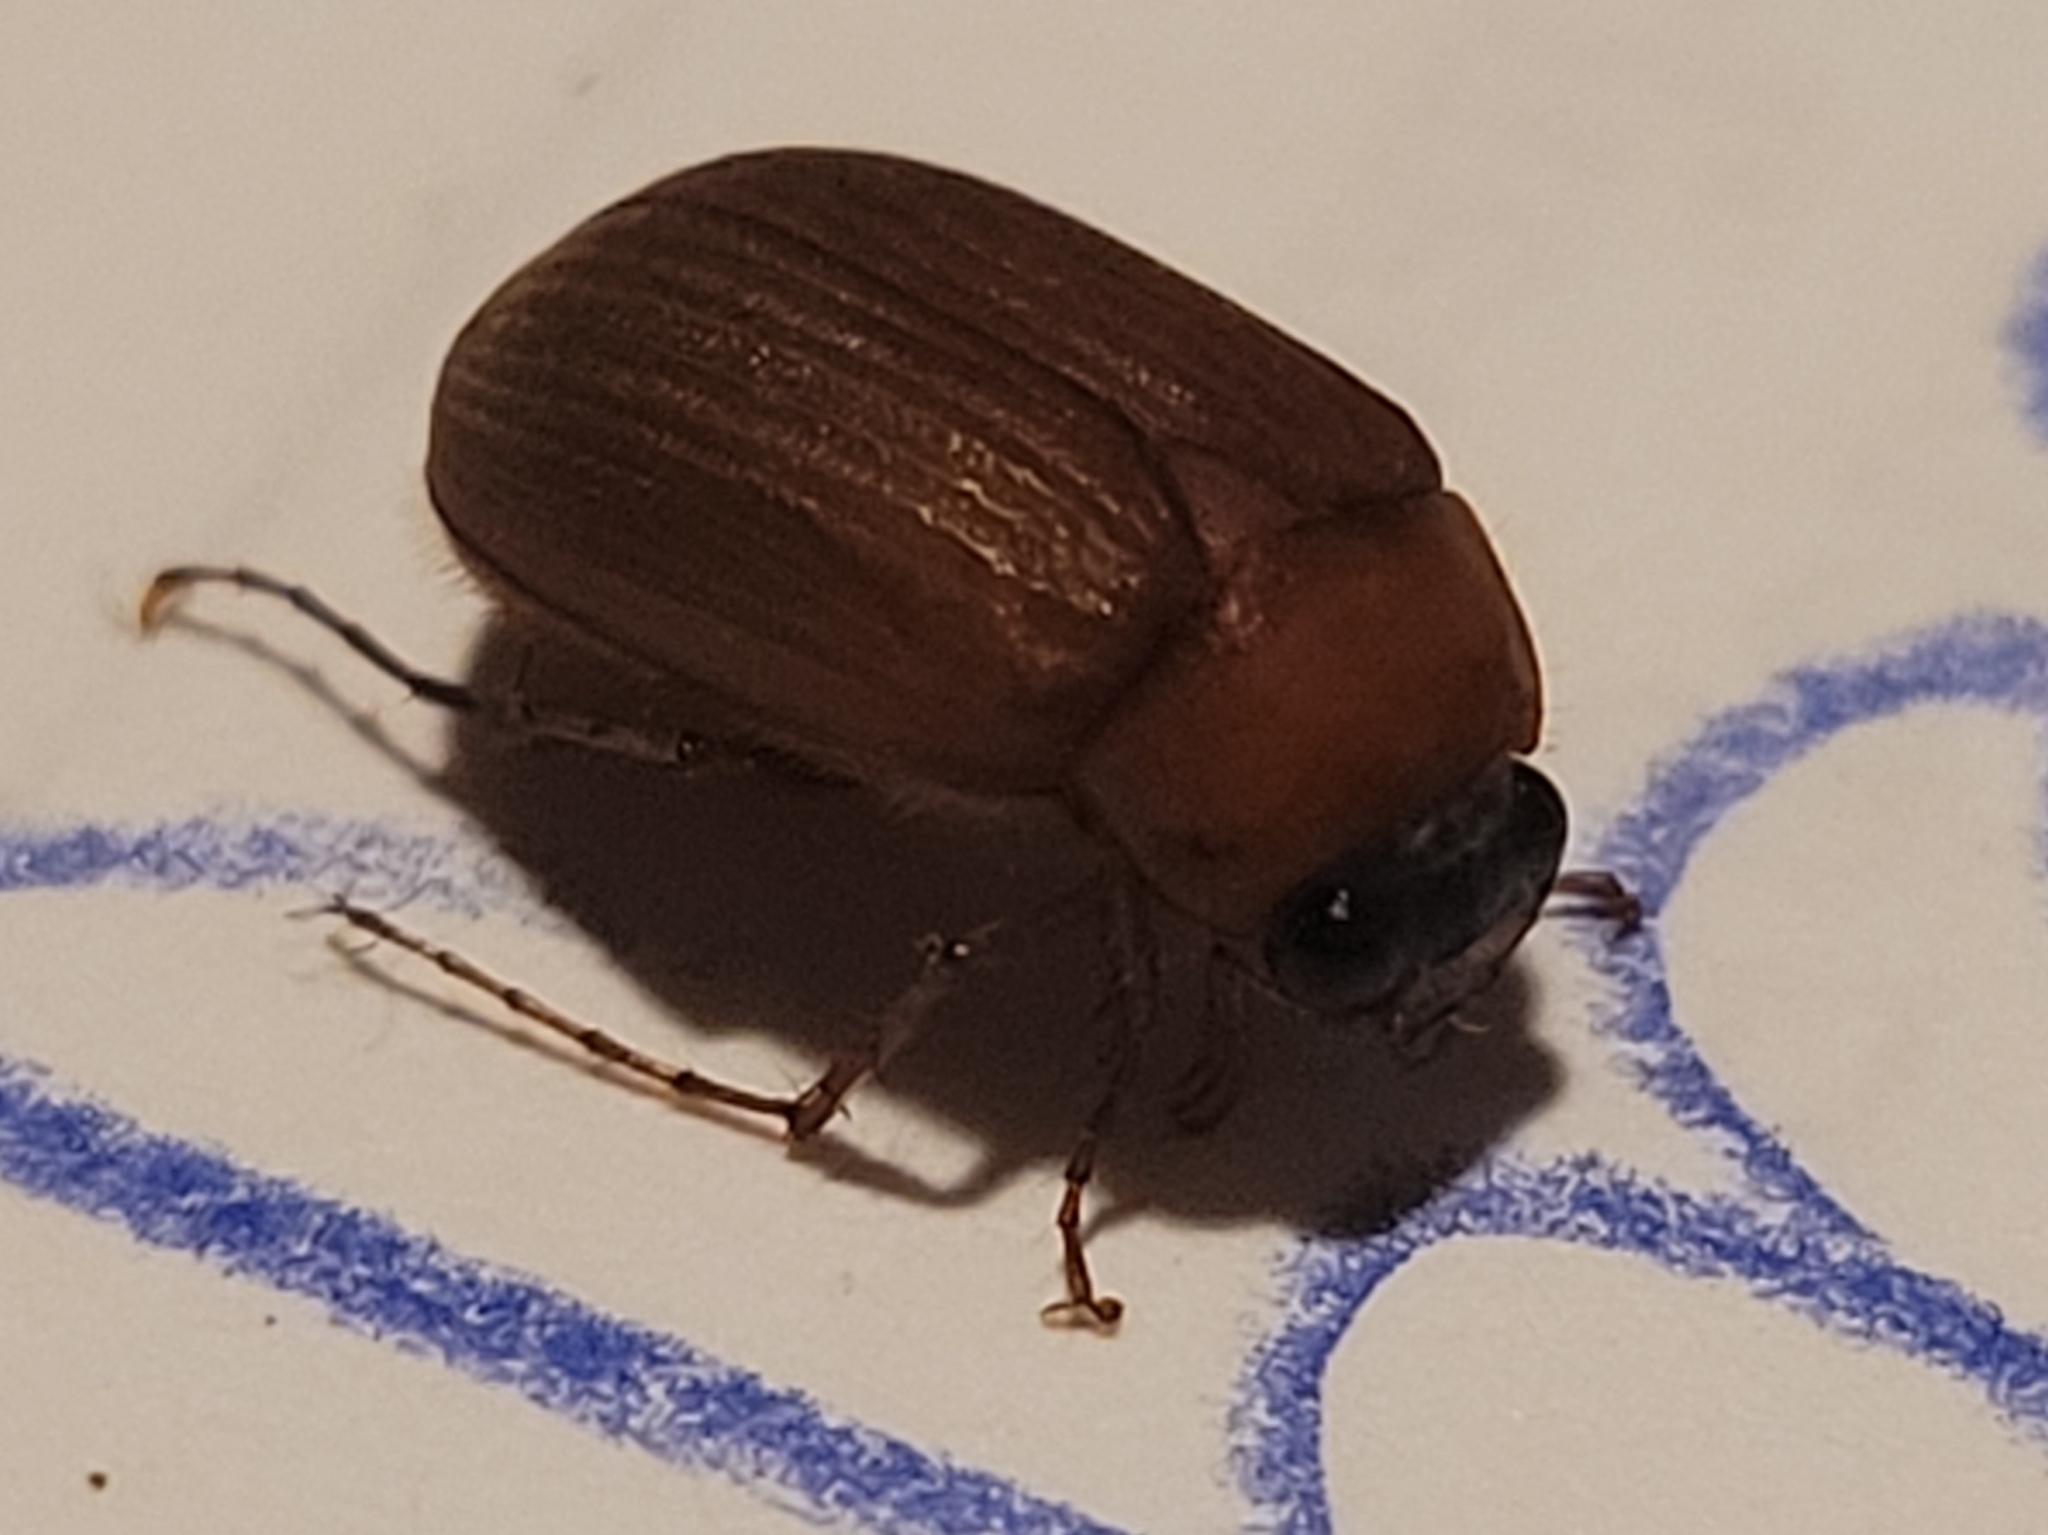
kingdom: Animalia
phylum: Arthropoda
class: Insecta
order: Coleoptera
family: Scarabaeidae
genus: Serica
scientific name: Serica brunnea
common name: Brown chafer
